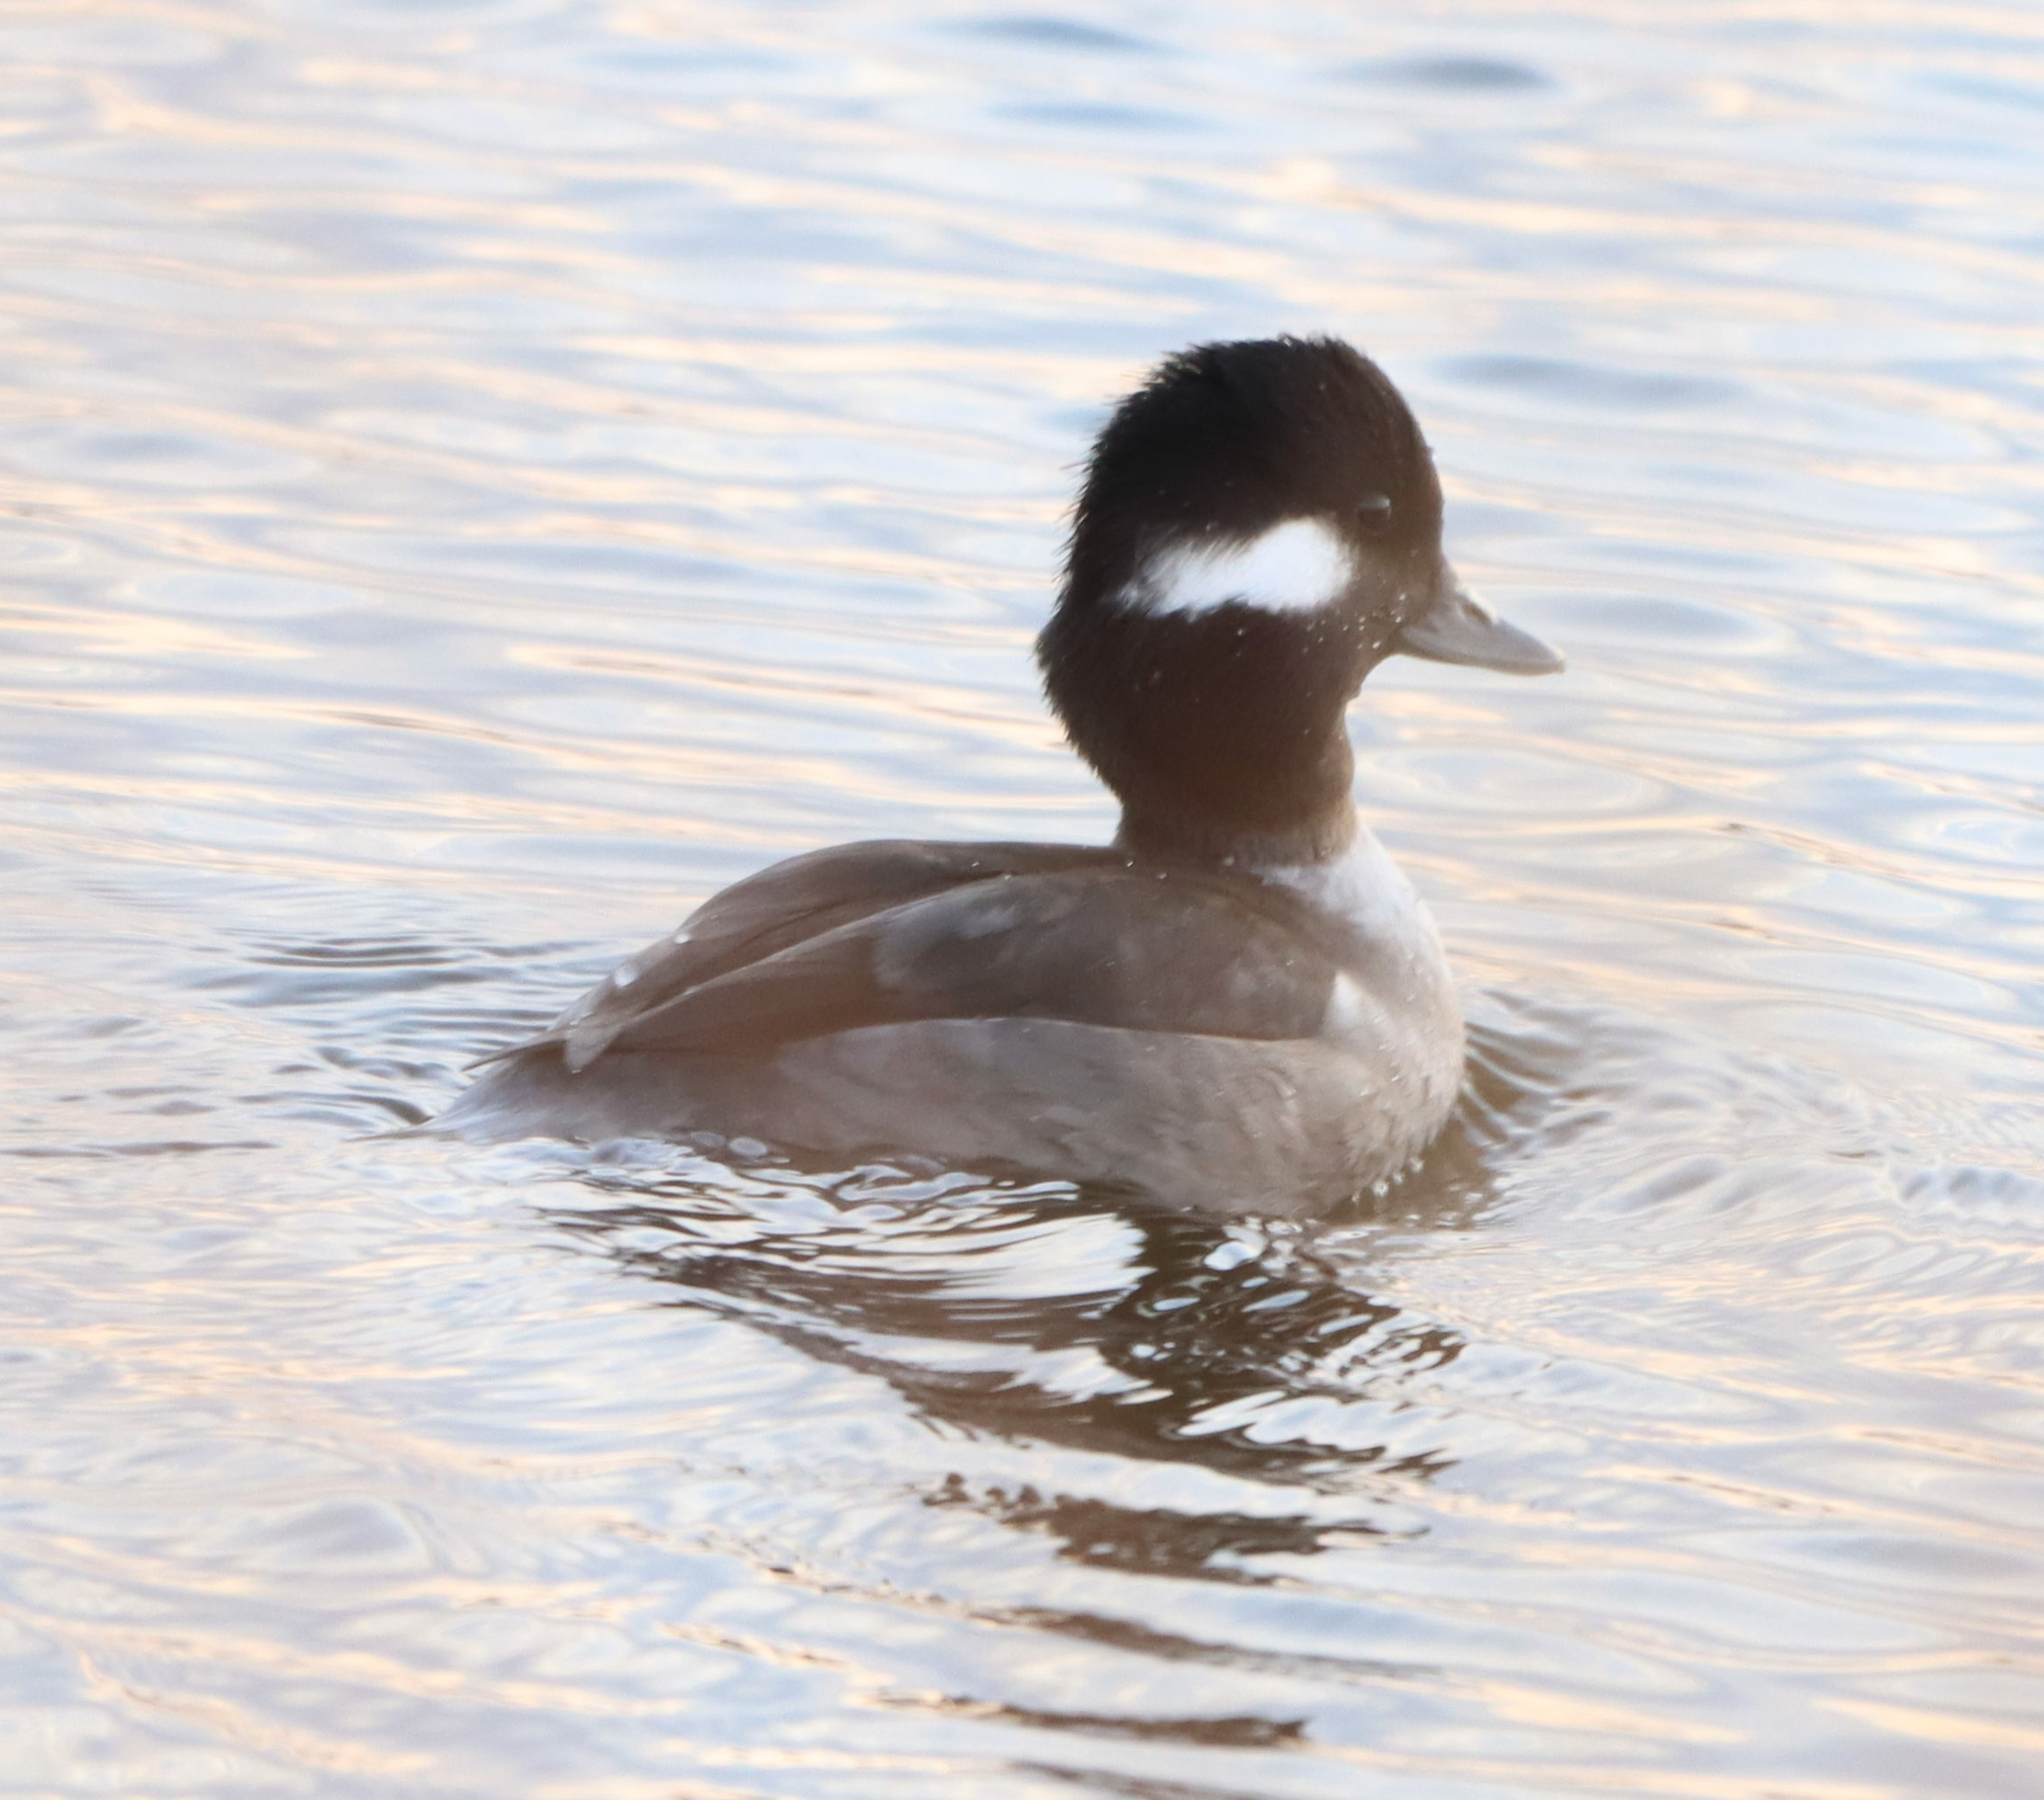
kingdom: Animalia
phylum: Chordata
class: Aves
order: Anseriformes
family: Anatidae
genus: Bucephala
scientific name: Bucephala albeola
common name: Bufflehead
